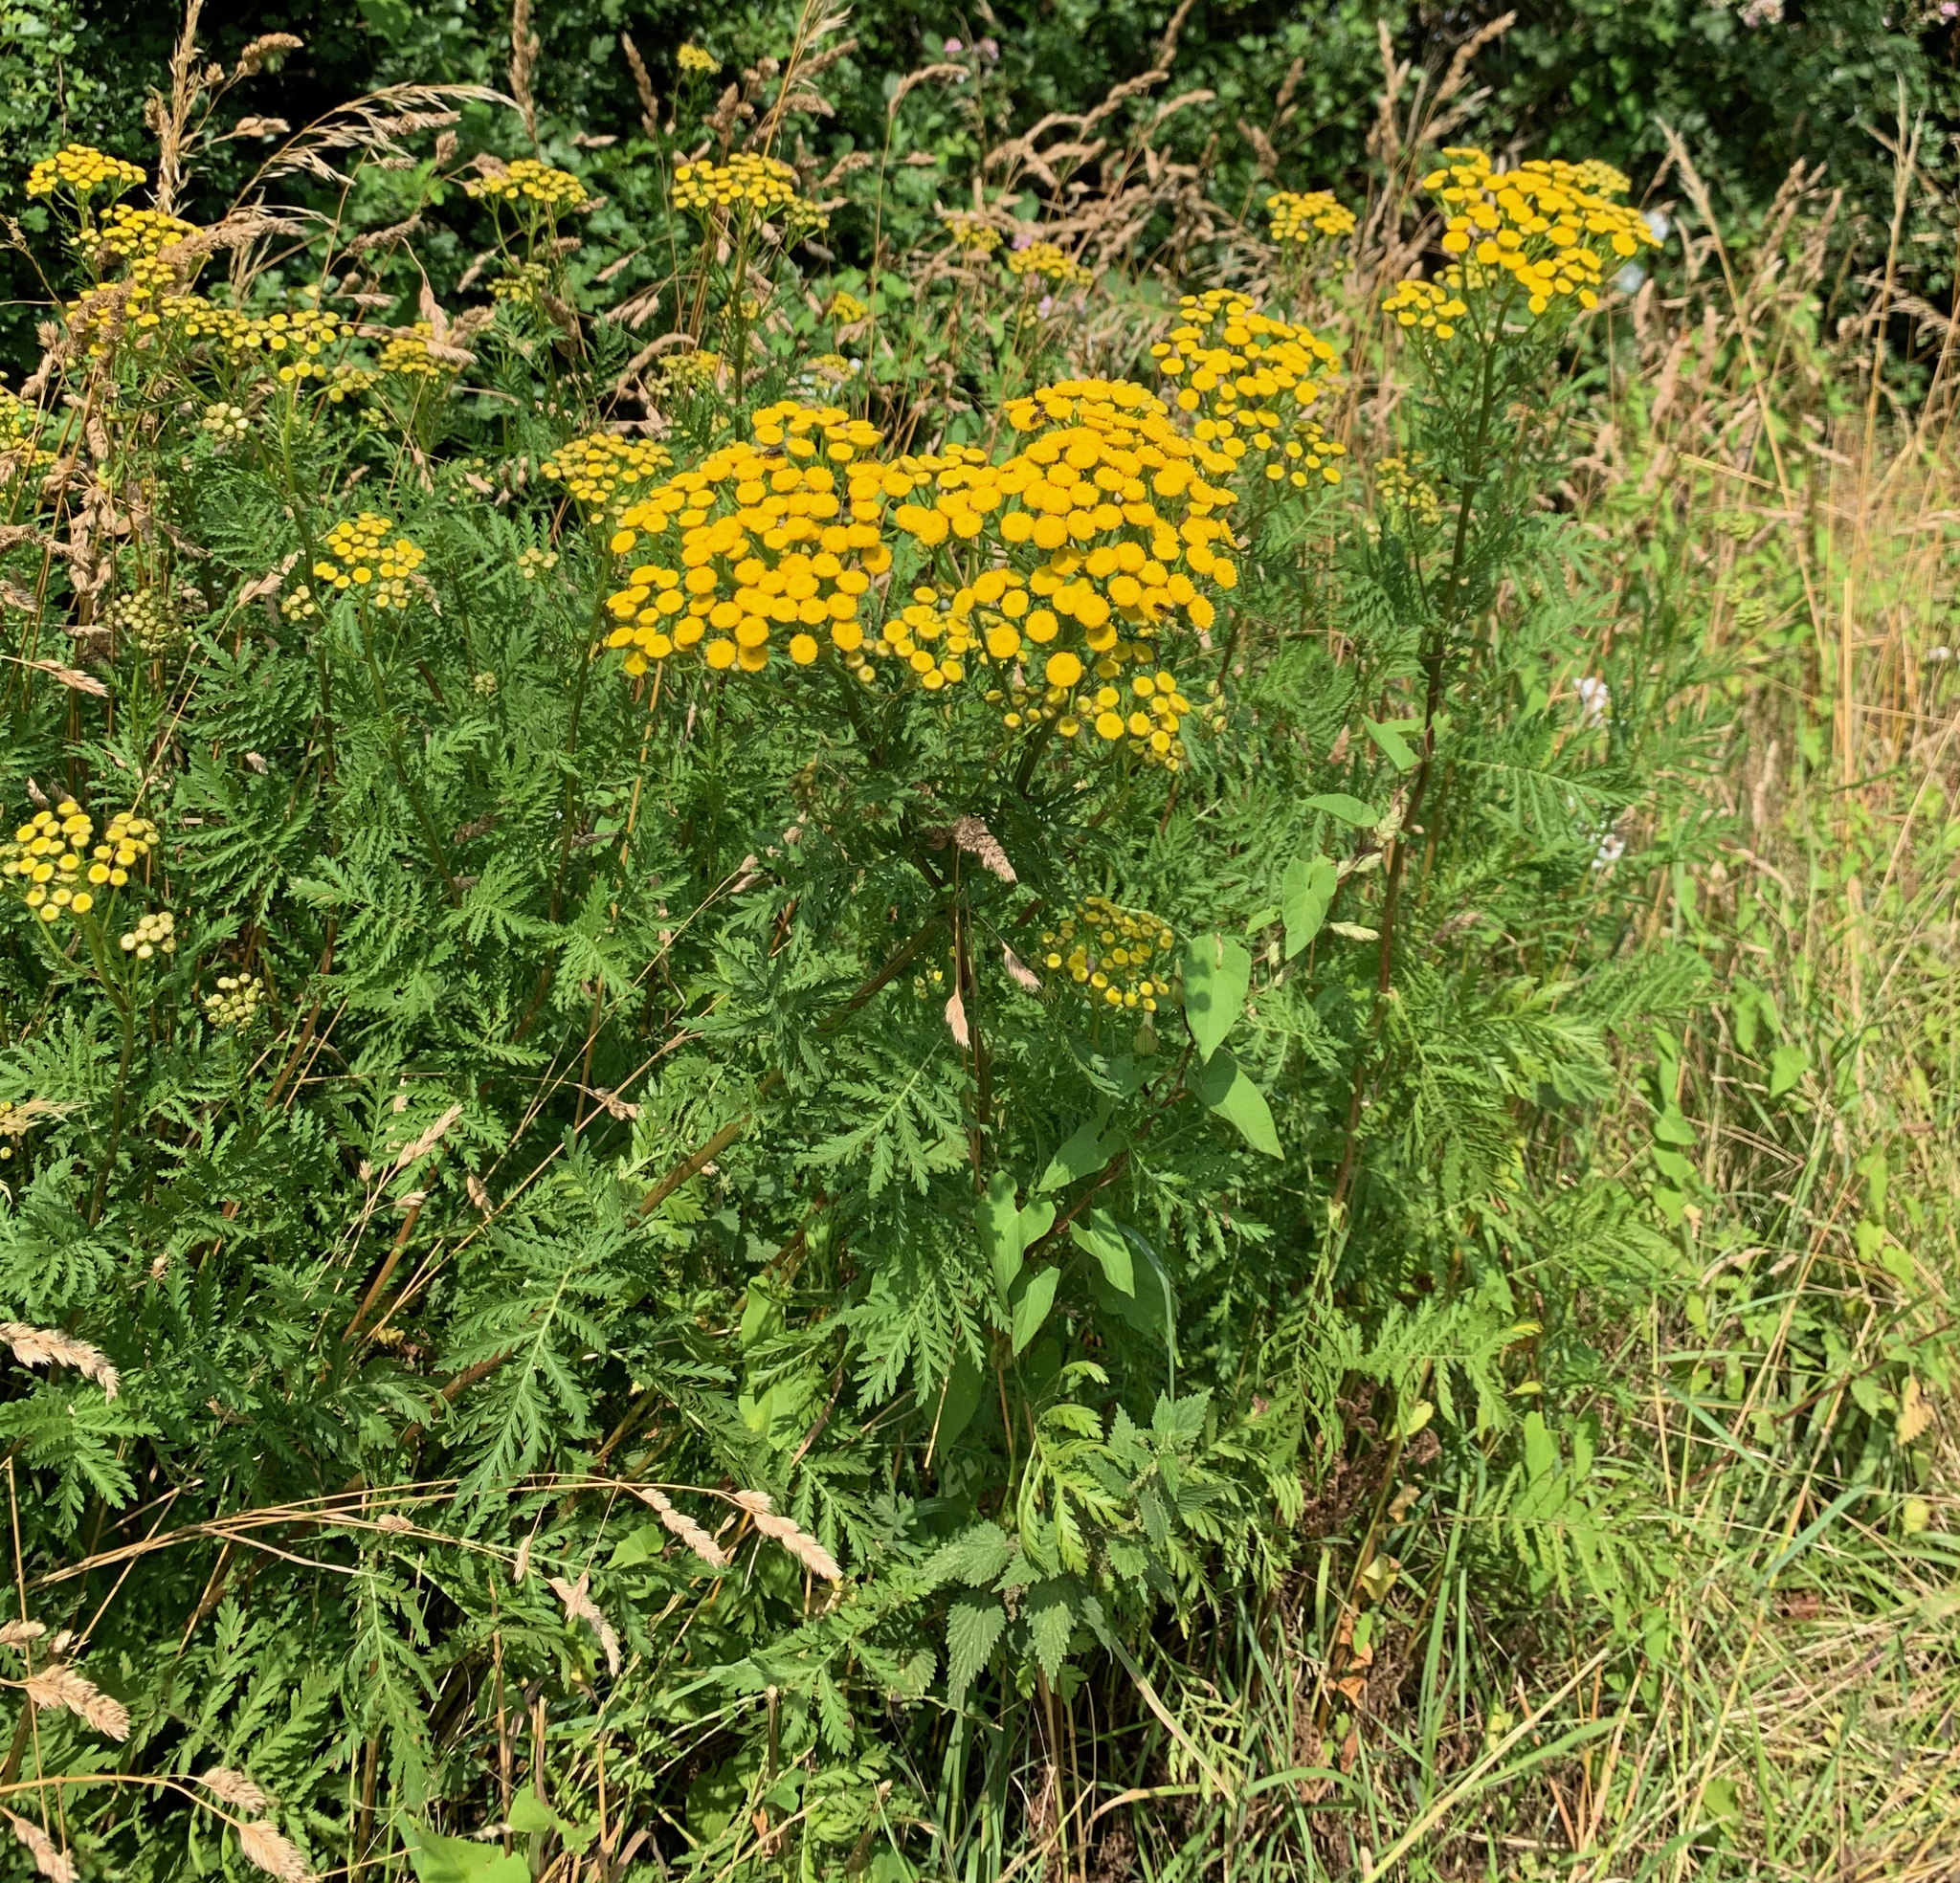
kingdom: Plantae
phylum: Tracheophyta
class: Magnoliopsida
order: Asterales
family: Asteraceae
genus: Tanacetum
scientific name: Tanacetum vulgare
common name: Common tansy
